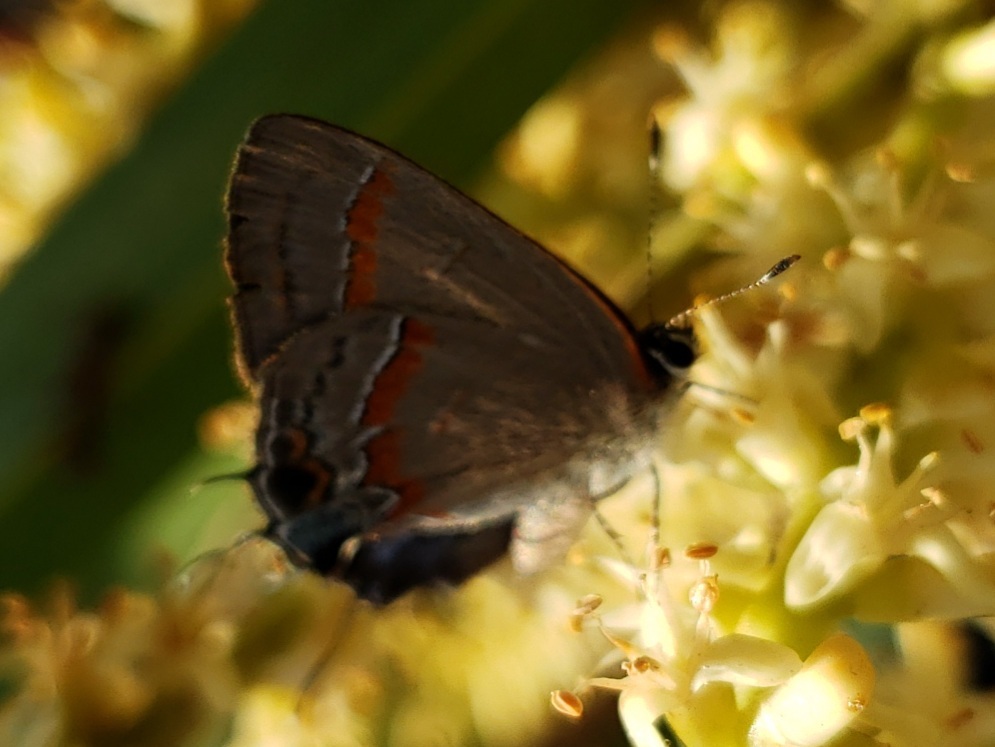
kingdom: Animalia
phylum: Arthropoda
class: Insecta
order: Lepidoptera
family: Lycaenidae
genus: Calycopis
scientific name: Calycopis cecrops
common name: Red-banded hairstreak
